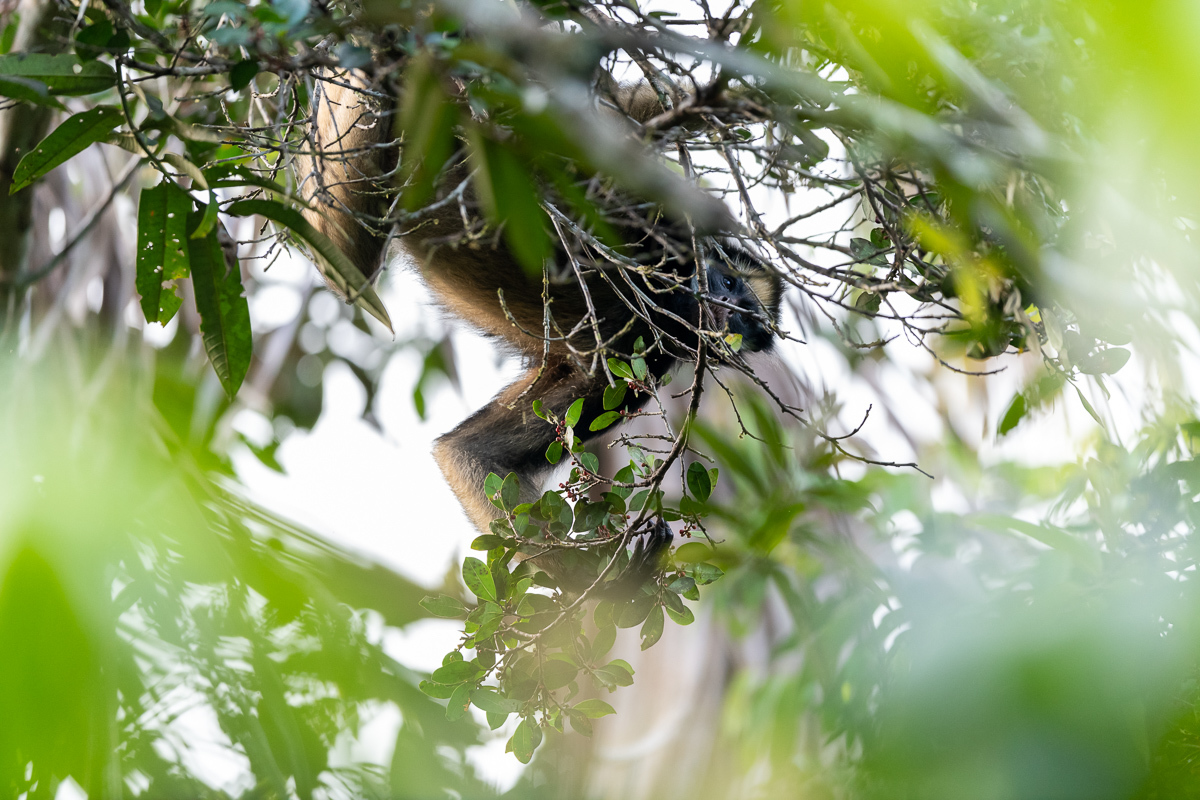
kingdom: Animalia
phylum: Chordata
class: Mammalia
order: Primates
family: Atelidae
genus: Ateles
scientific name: Ateles belzebuth
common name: White-fronted spider monkey
